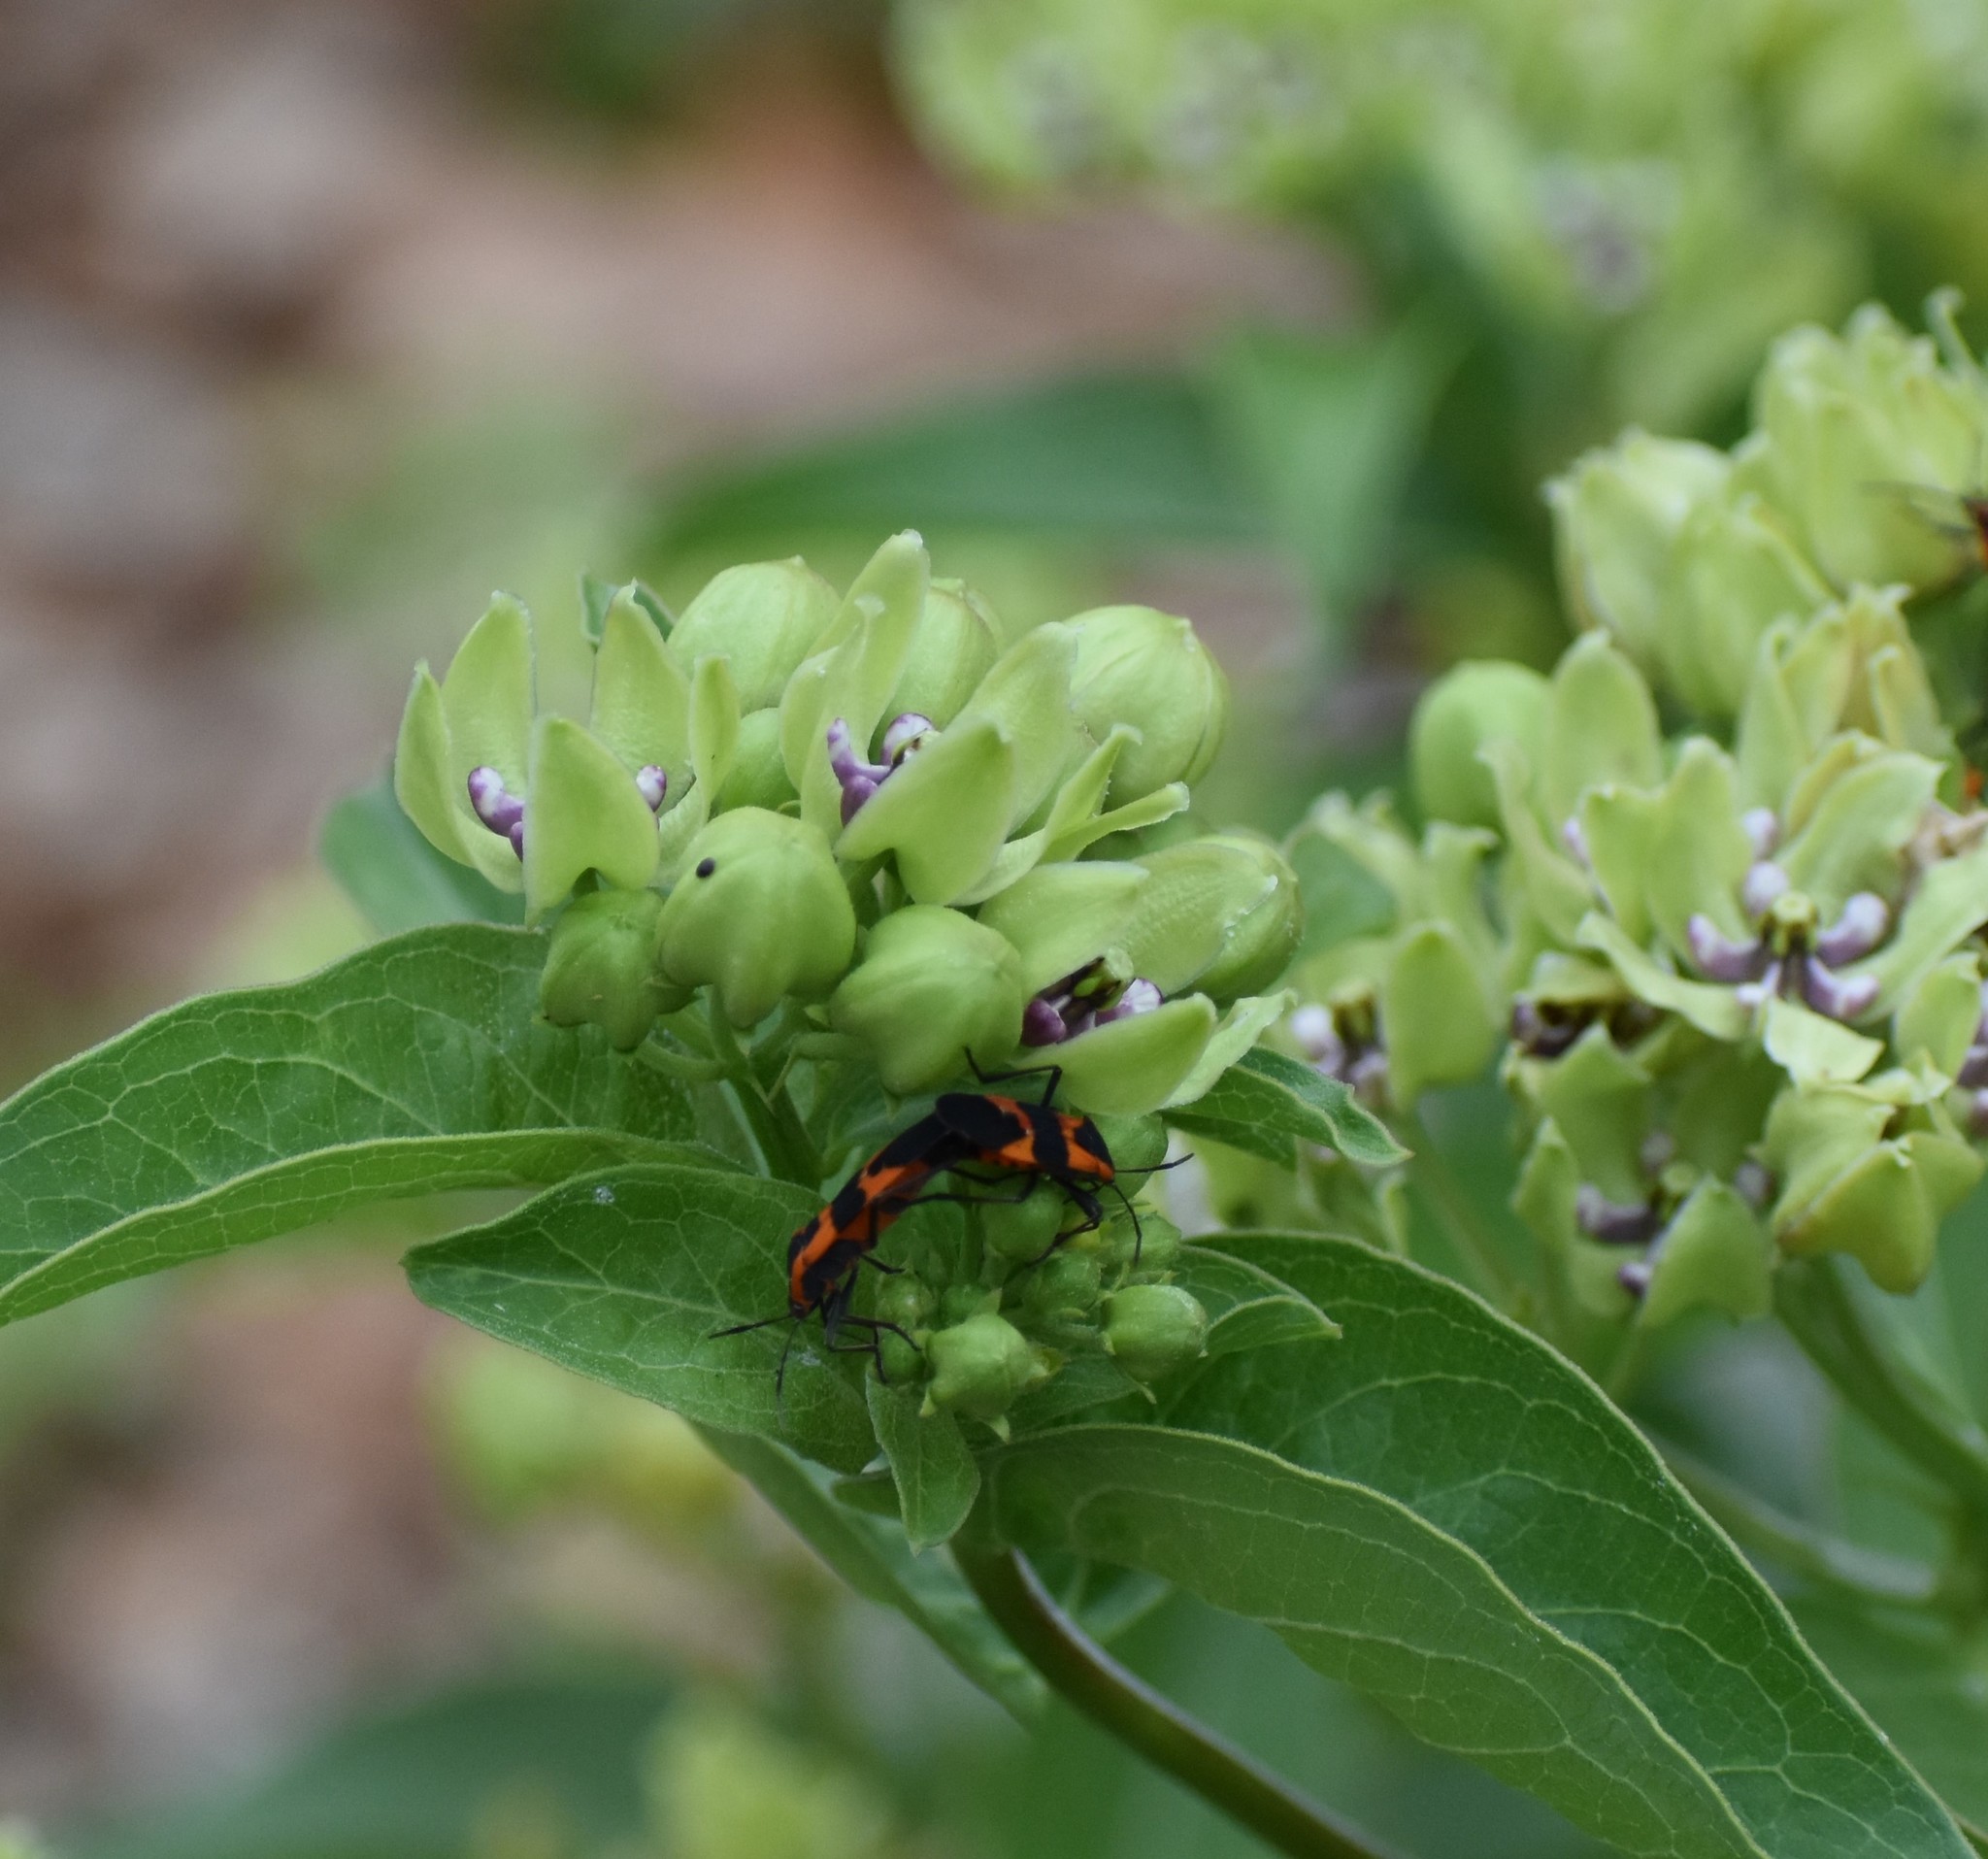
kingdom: Animalia
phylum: Arthropoda
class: Insecta
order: Hemiptera
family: Lygaeidae
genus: Oncopeltus
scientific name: Oncopeltus fasciatus
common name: Large milkweed bug
